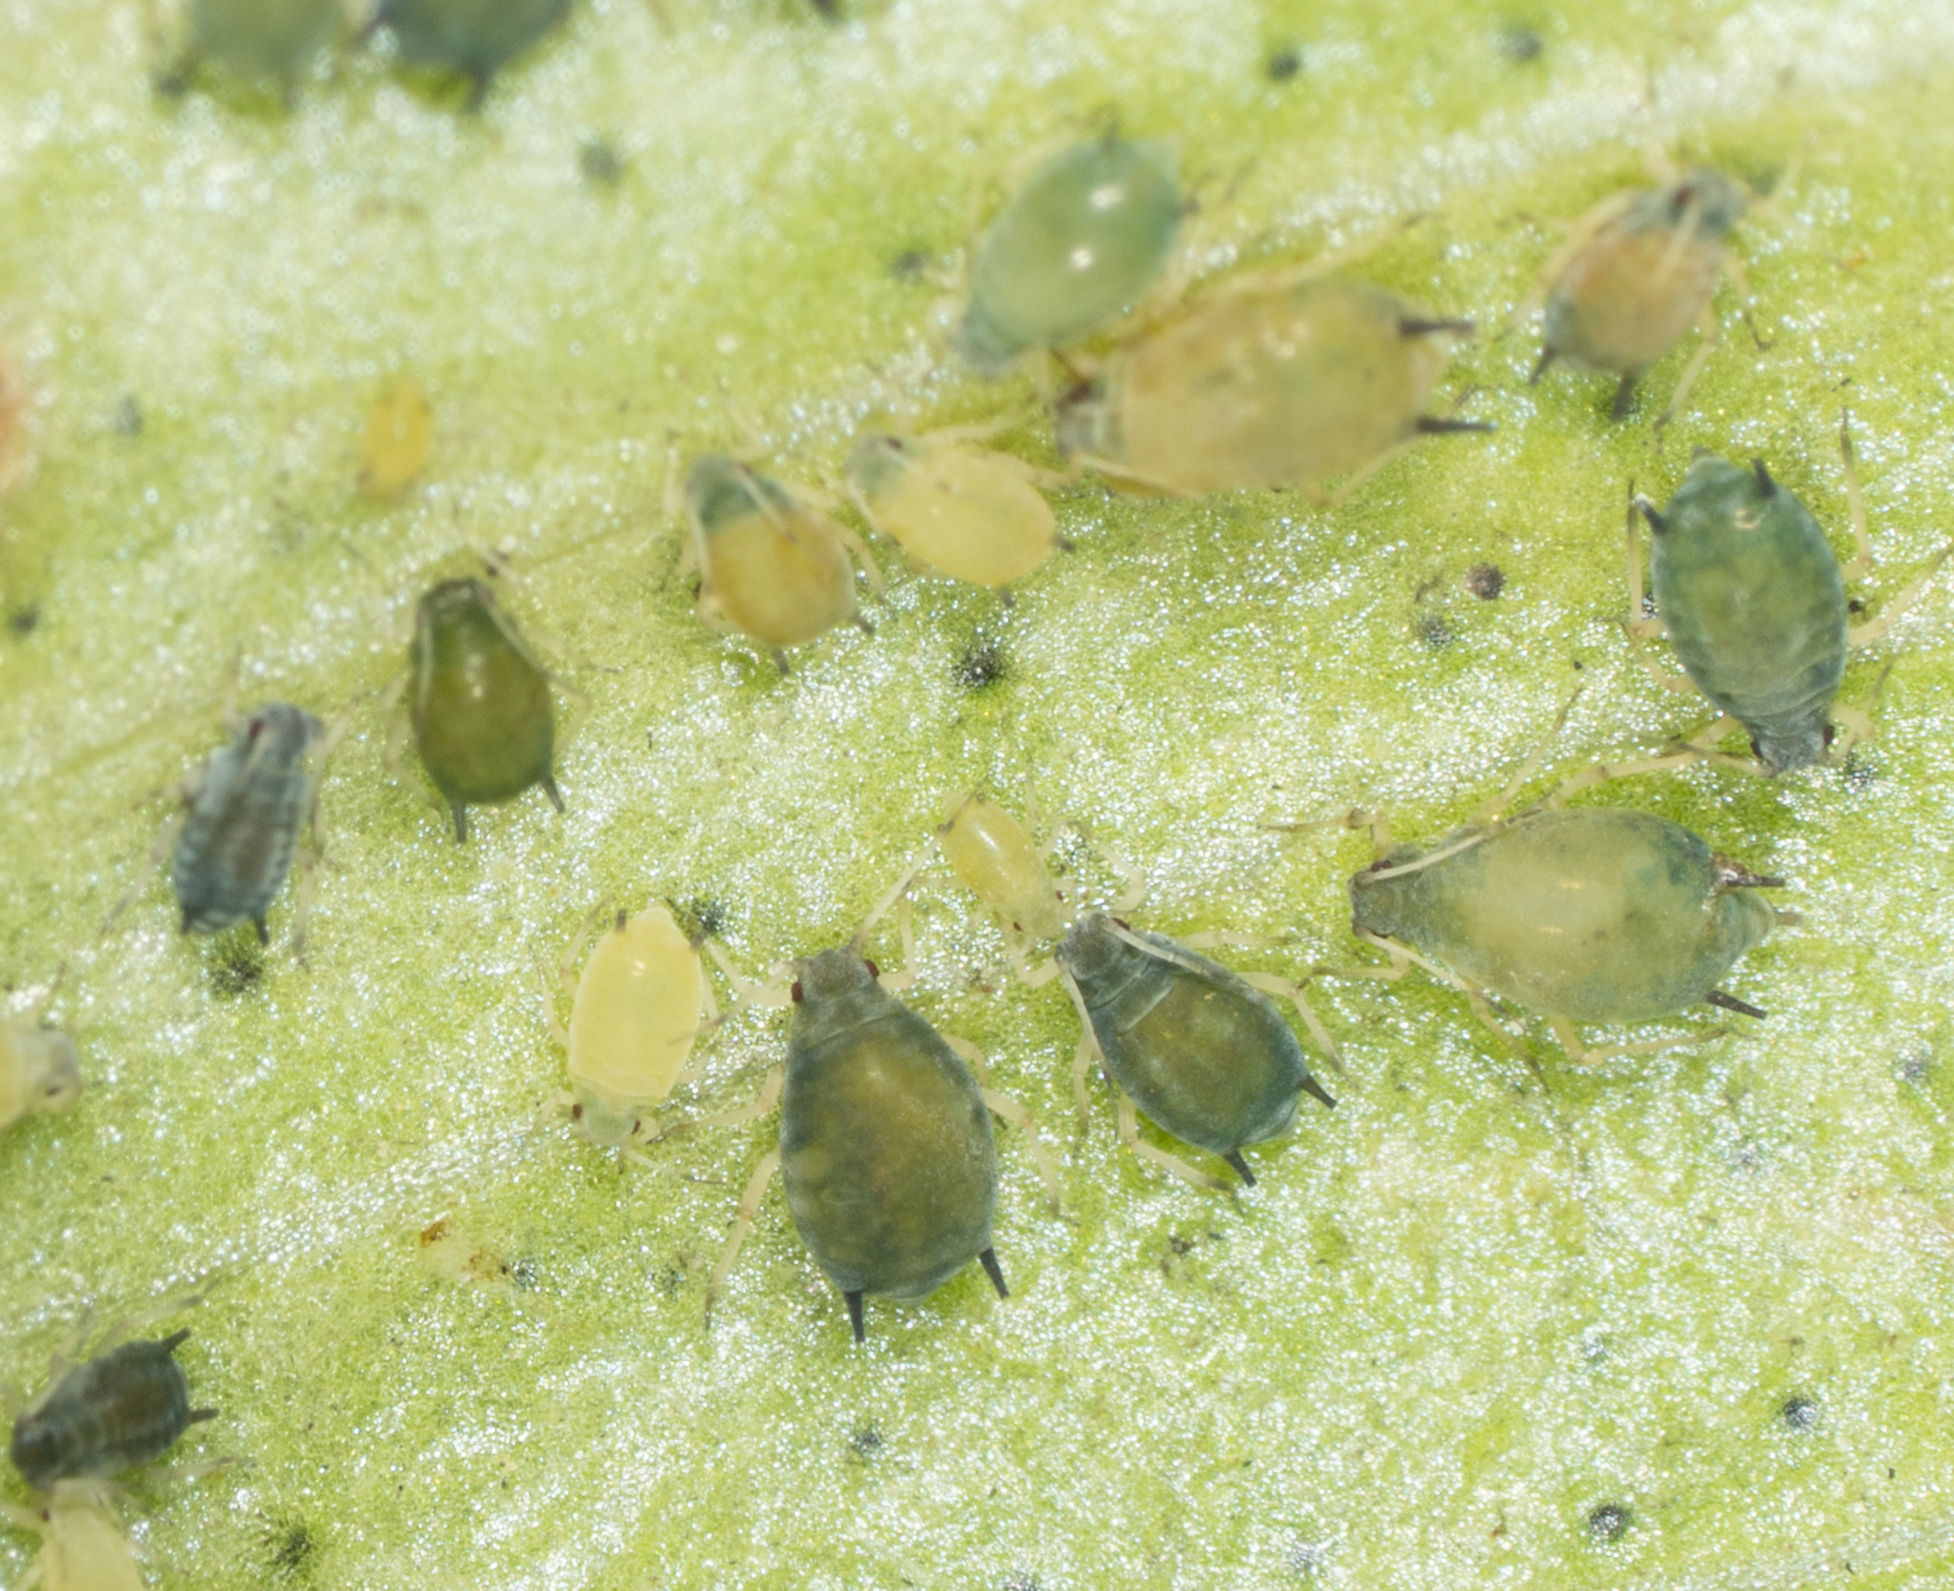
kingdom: Animalia
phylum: Arthropoda
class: Insecta
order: Hemiptera
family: Aphididae
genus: Aphis
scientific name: Aphis gossypii
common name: Melon aphid
